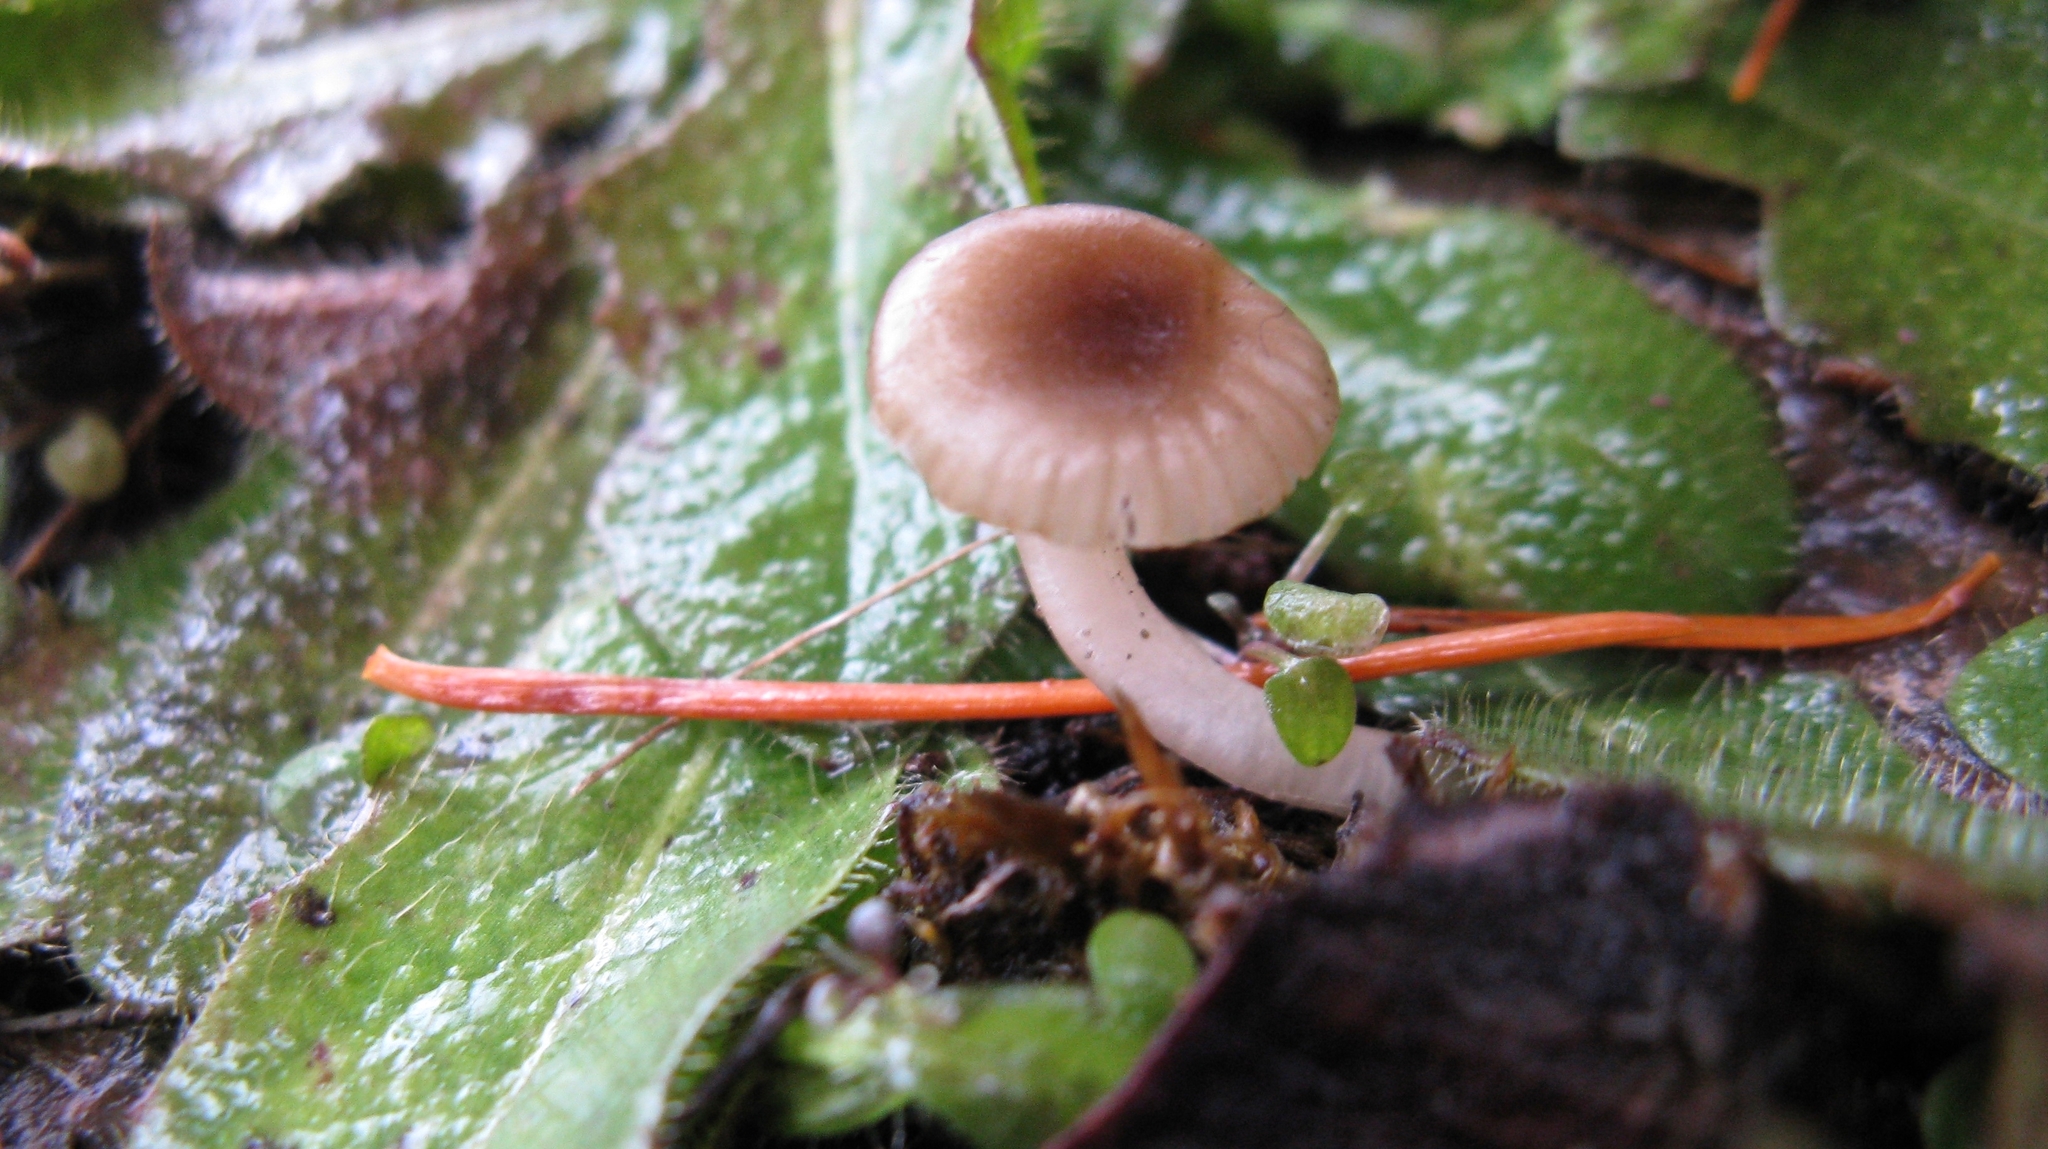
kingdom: Fungi
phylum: Basidiomycota
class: Agaricomycetes
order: Agaricales
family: Hygrophoraceae
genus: Cuphophyllus
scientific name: Cuphophyllus recurvatus
